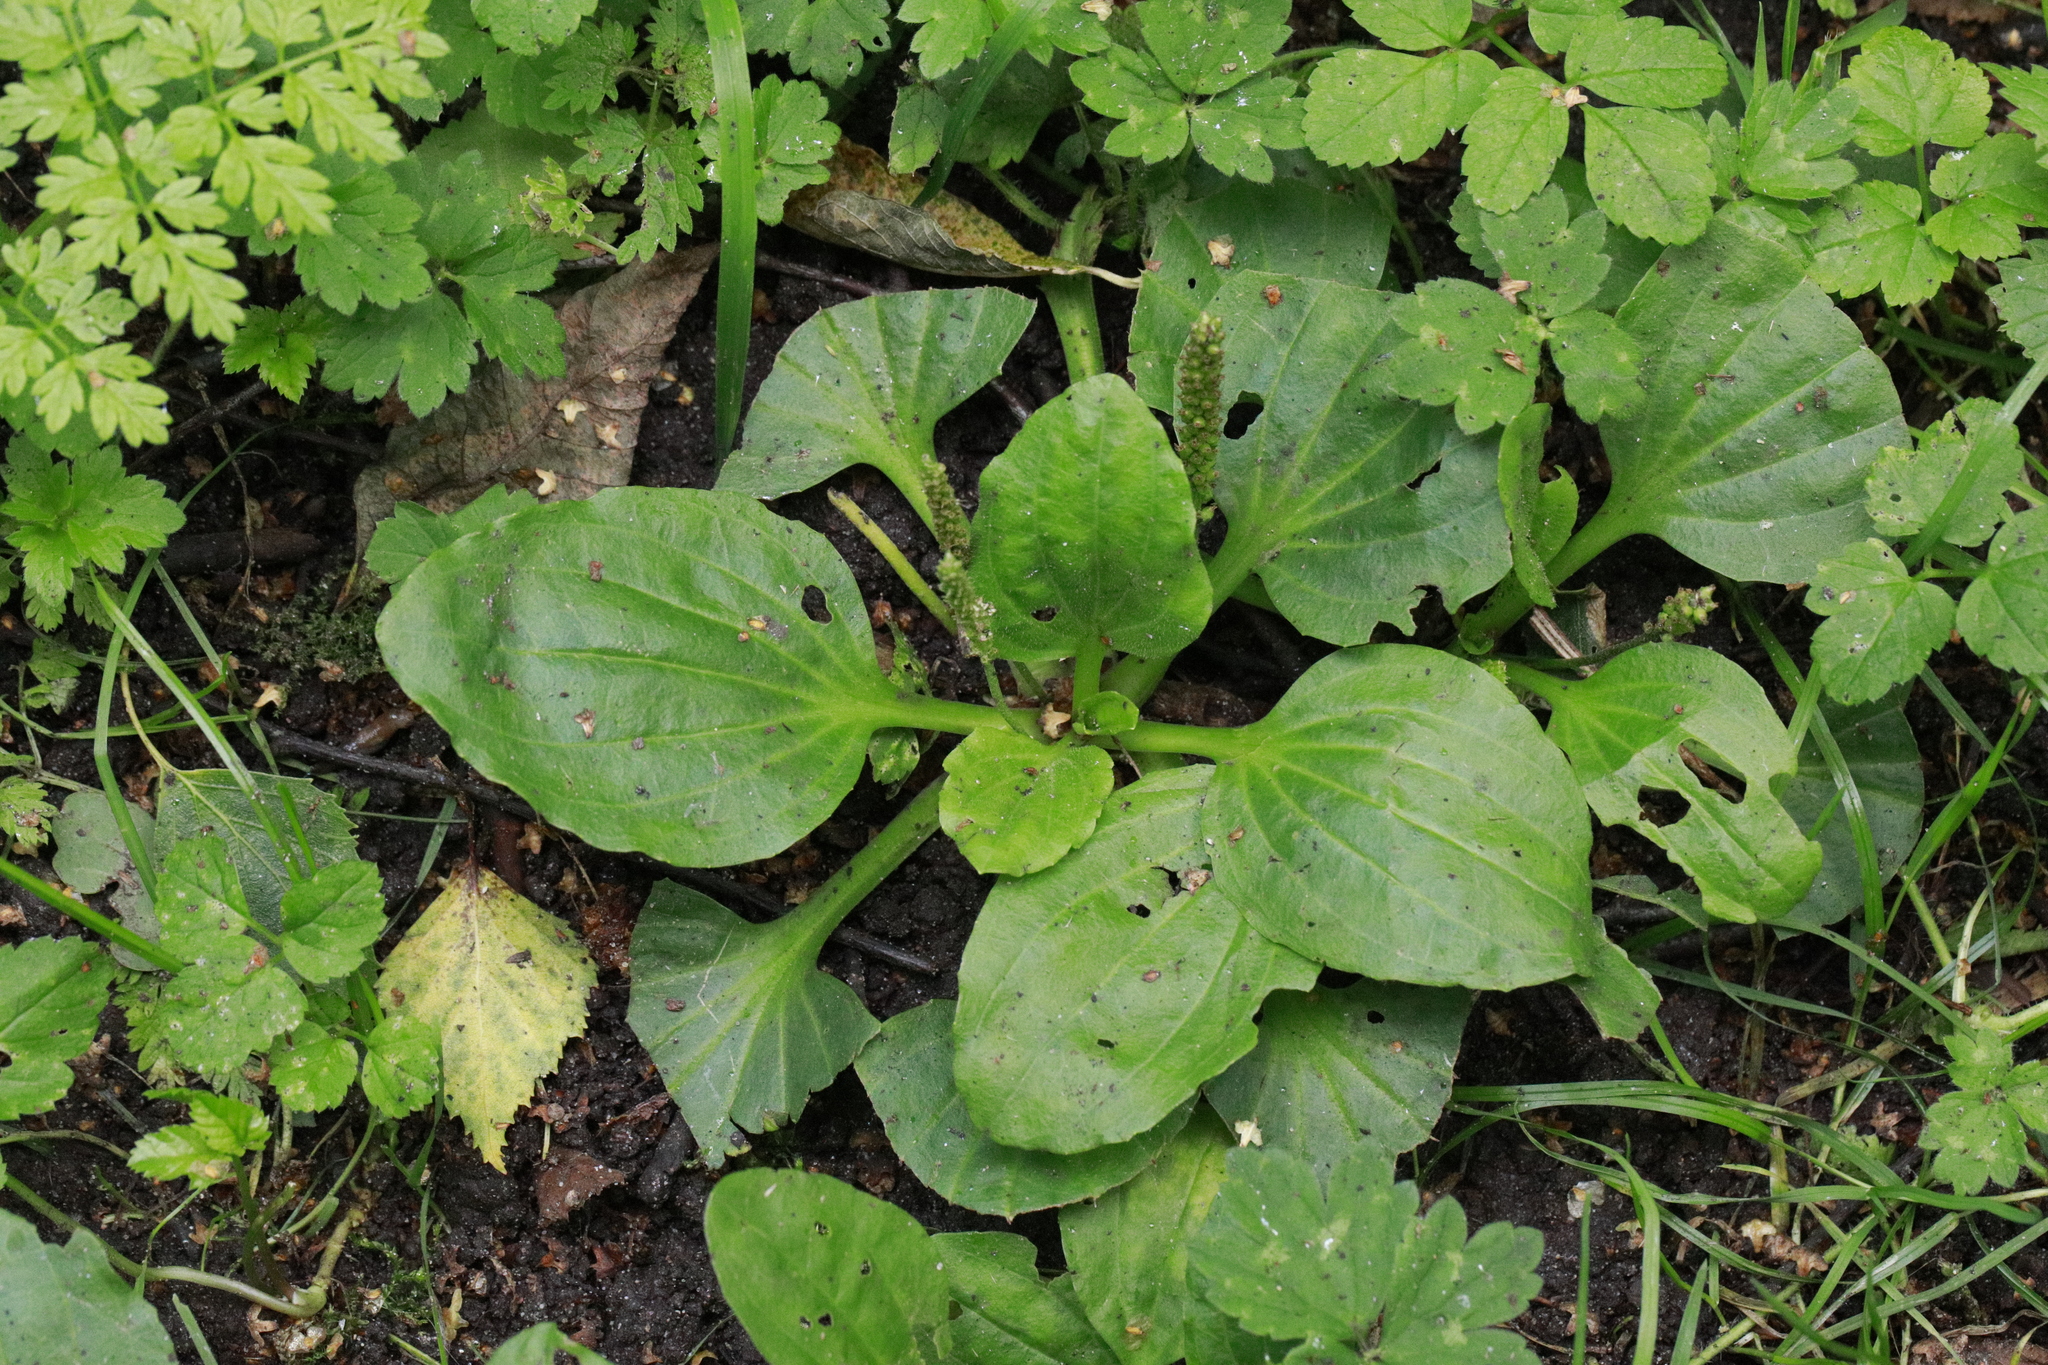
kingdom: Plantae
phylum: Tracheophyta
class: Magnoliopsida
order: Lamiales
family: Plantaginaceae
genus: Plantago
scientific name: Plantago major
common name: Common plantain
